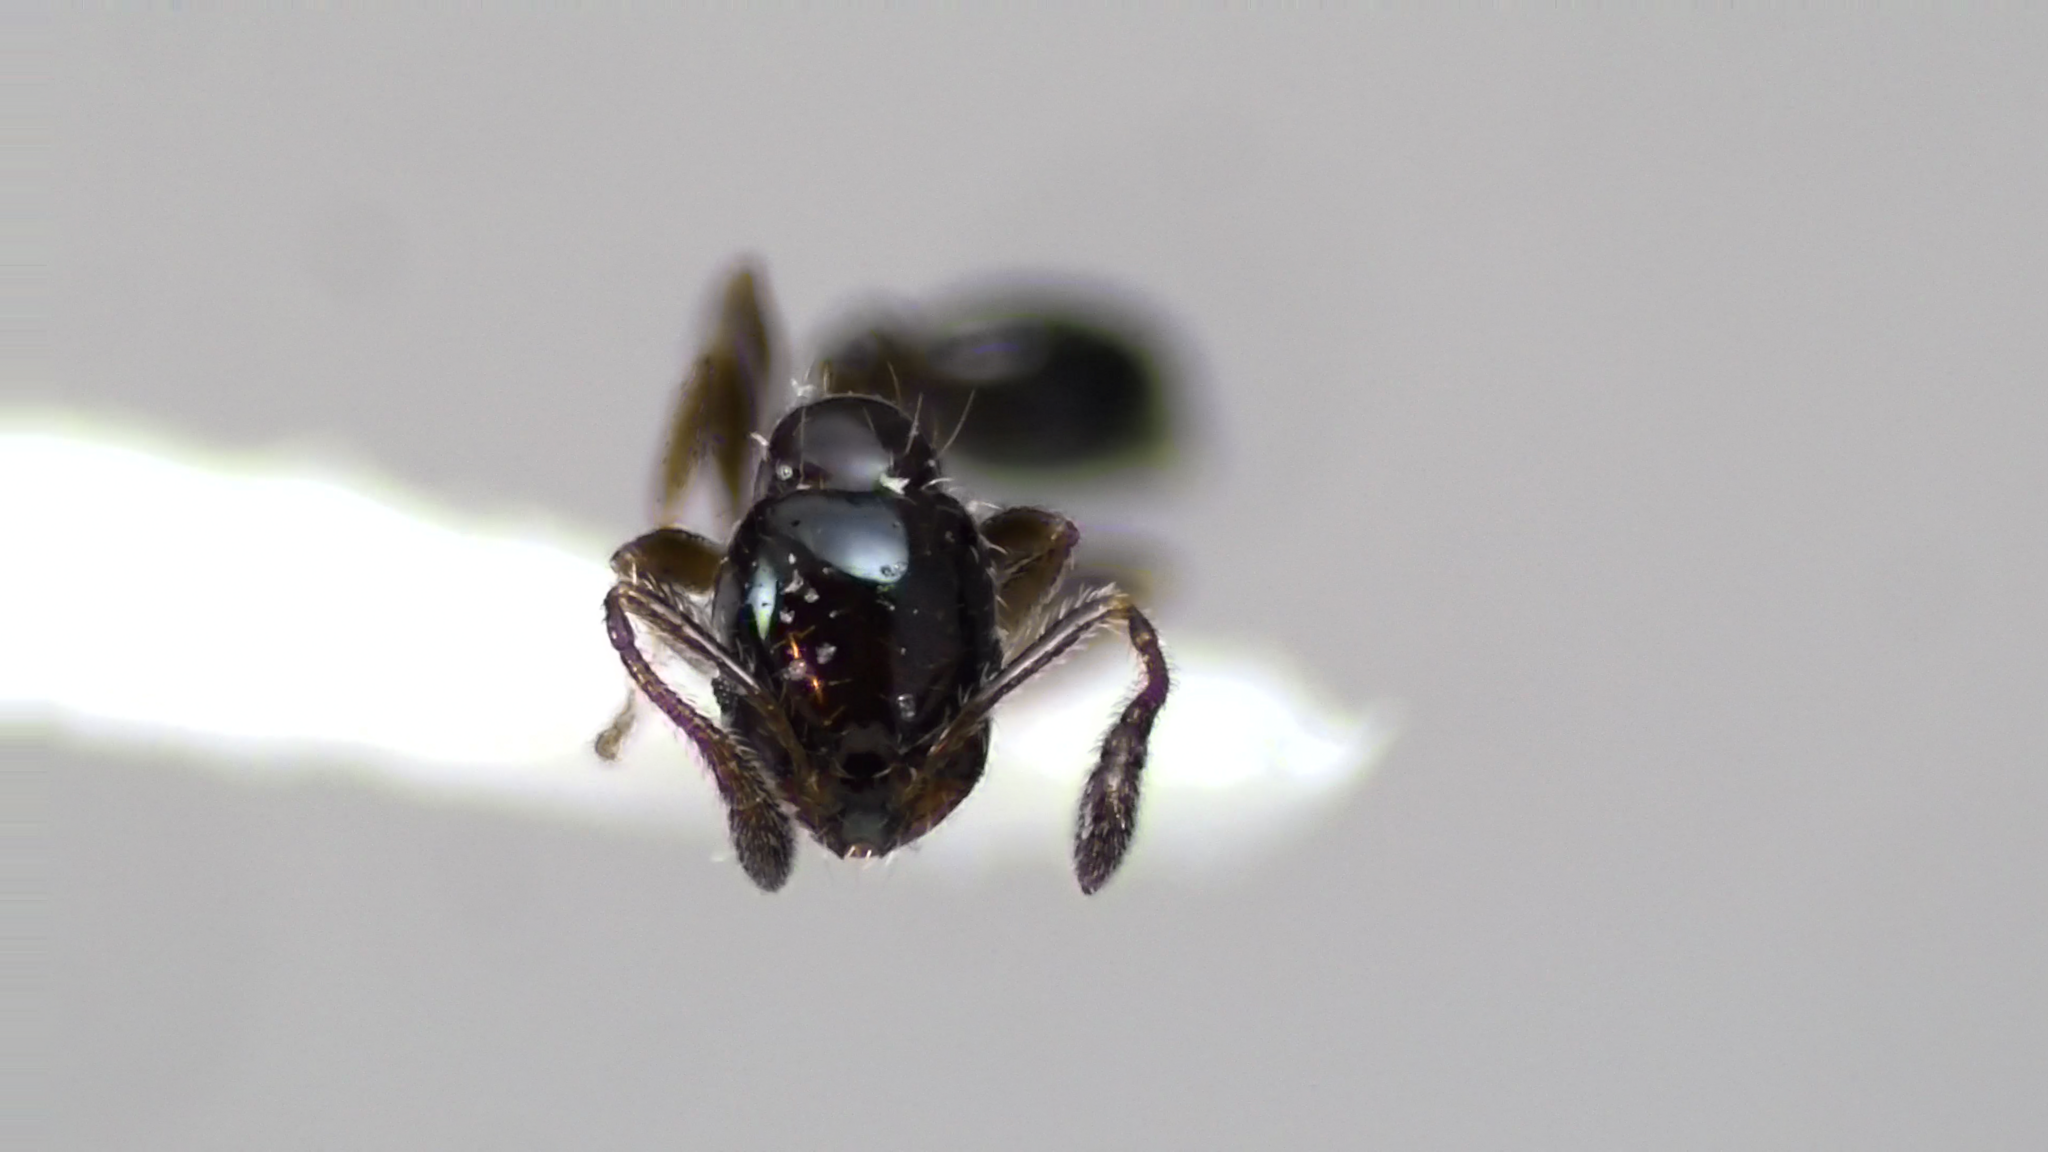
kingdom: Animalia
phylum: Arthropoda
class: Insecta
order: Hymenoptera
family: Formicidae
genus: Monomorium
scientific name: Monomorium minimum
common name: Little black ant
